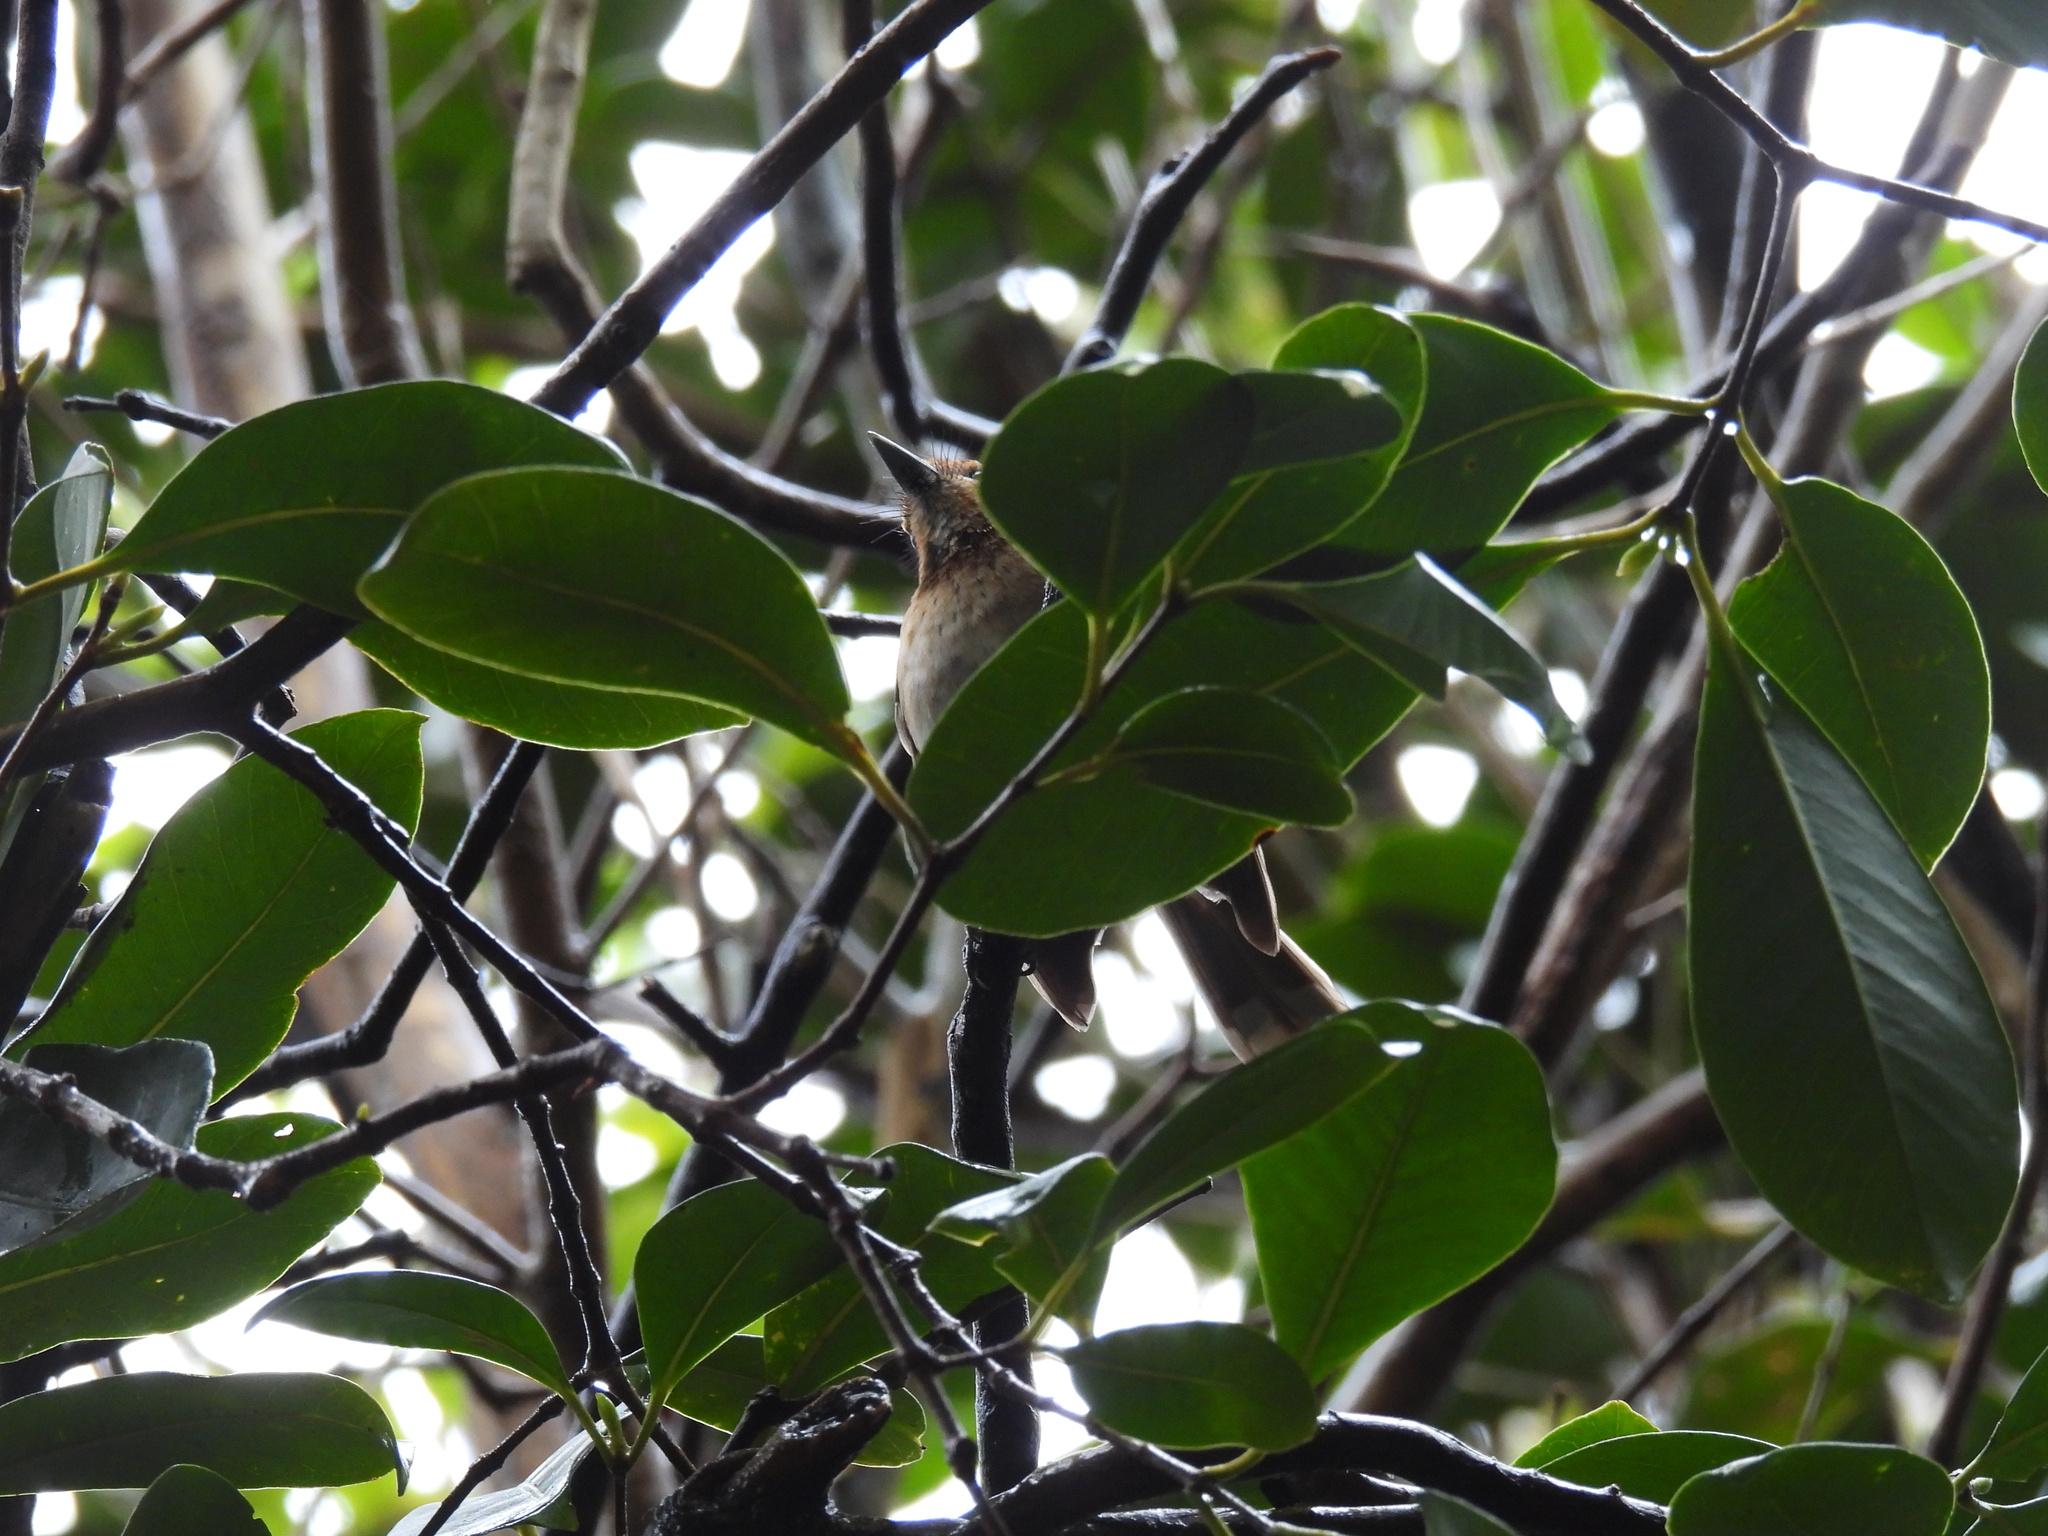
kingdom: Animalia
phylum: Chordata
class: Aves
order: Passeriformes
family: Monarchidae
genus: Chasiempis
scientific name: Chasiempis ibidis
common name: Oahu elepaio
